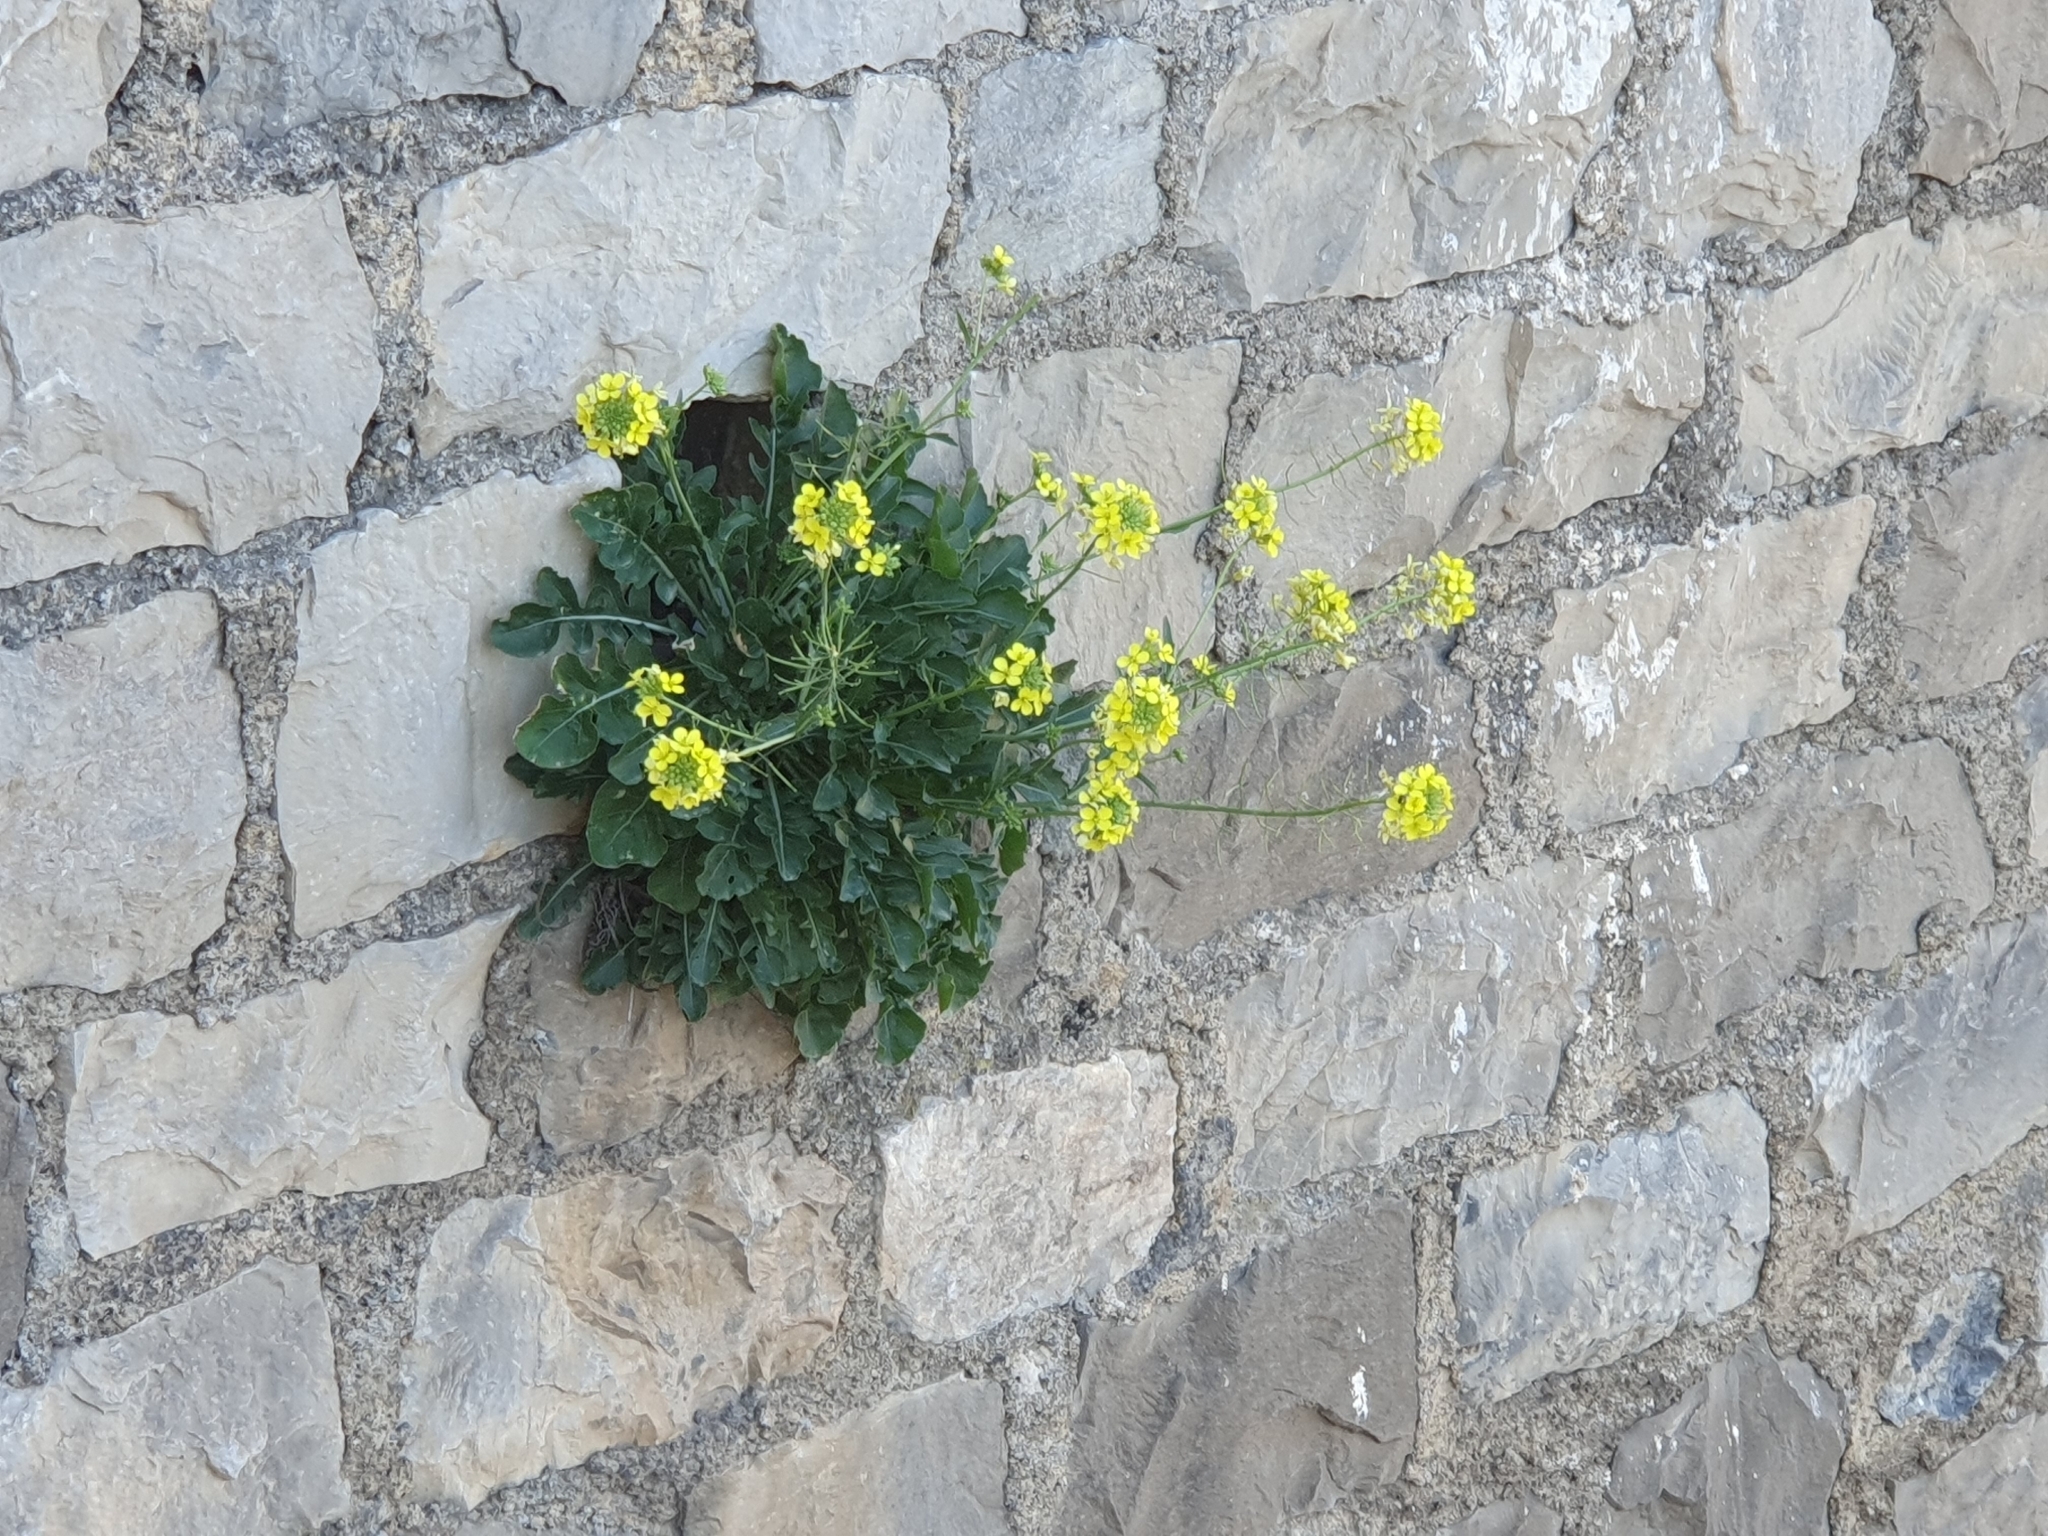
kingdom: Plantae
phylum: Tracheophyta
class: Magnoliopsida
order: Brassicales
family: Brassicaceae
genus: Brassica
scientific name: Brassica gravinae
